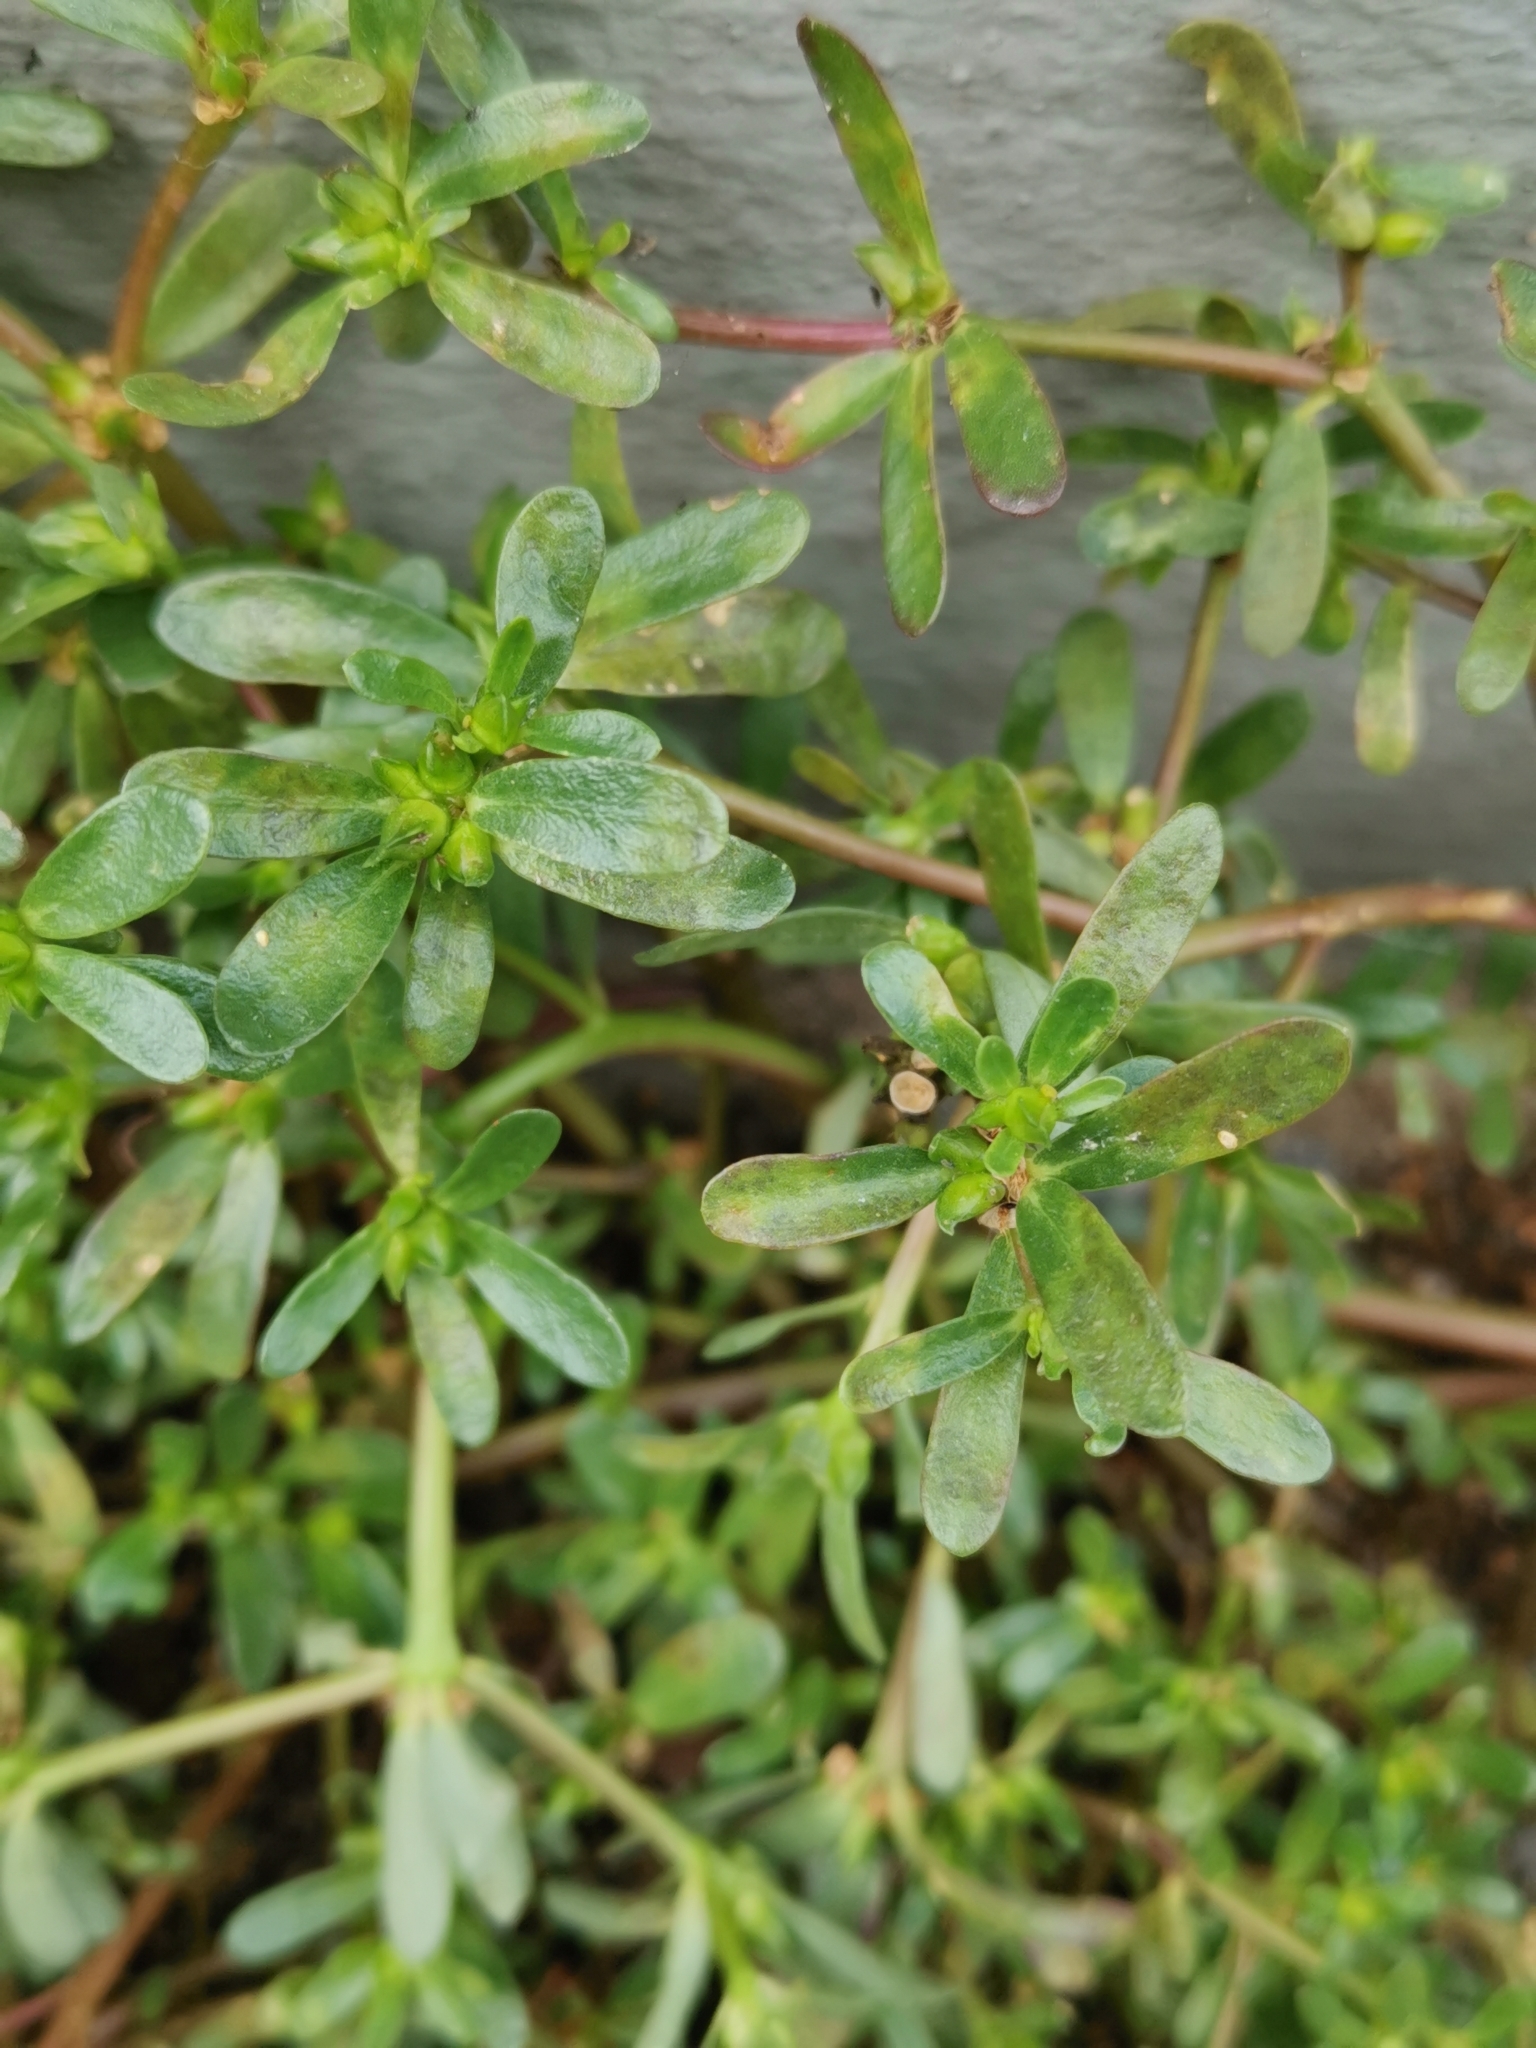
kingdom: Plantae
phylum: Tracheophyta
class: Magnoliopsida
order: Caryophyllales
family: Portulacaceae
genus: Portulaca
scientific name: Portulaca oleracea
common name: Common purslane
